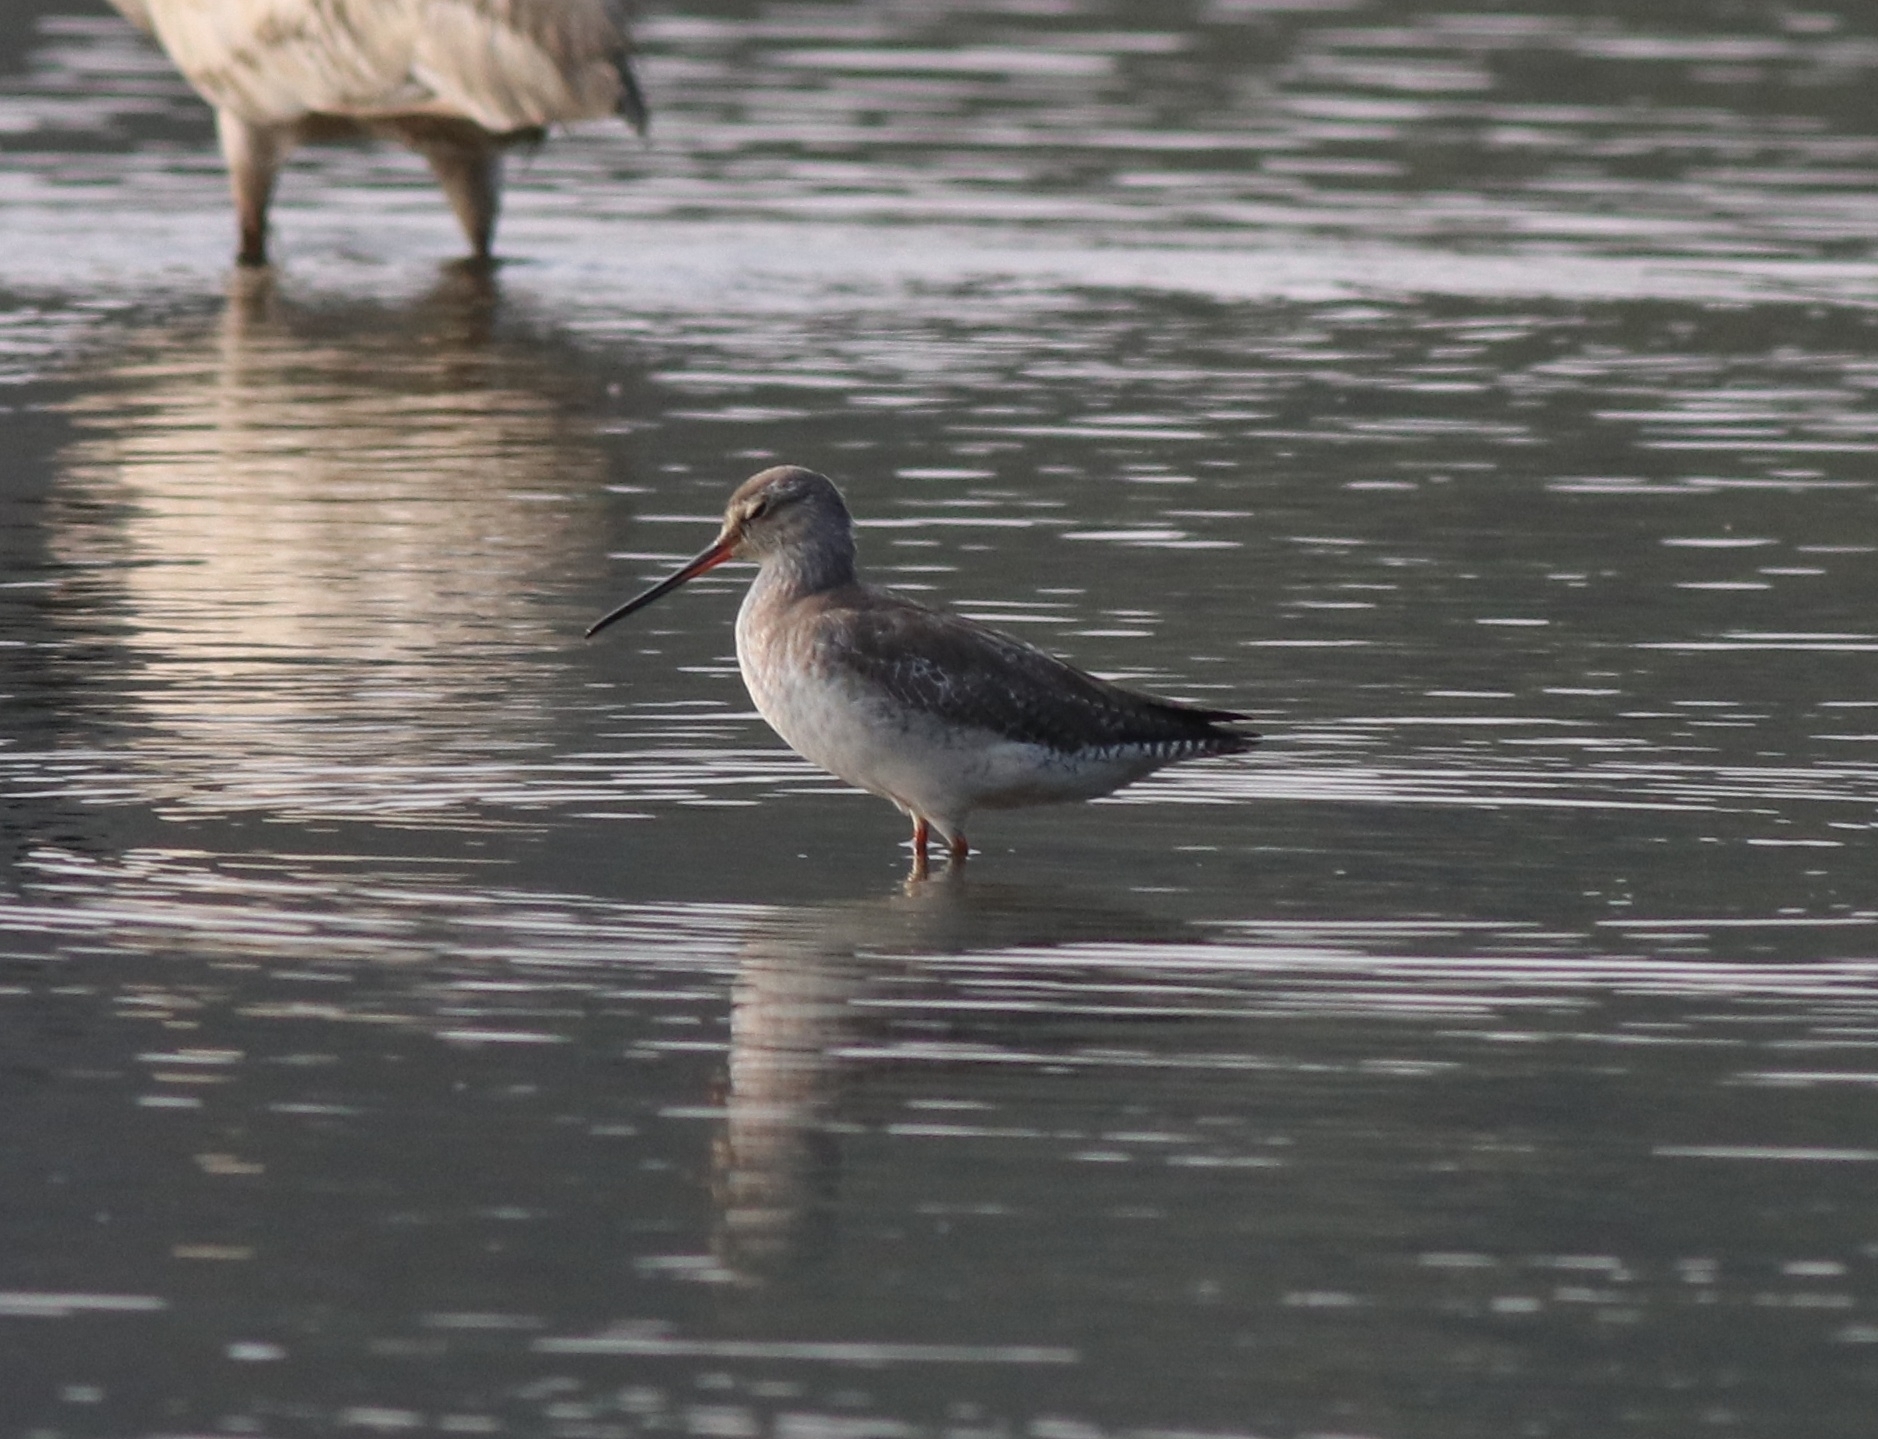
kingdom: Animalia
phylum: Chordata
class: Aves
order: Charadriiformes
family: Scolopacidae
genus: Tringa
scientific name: Tringa erythropus
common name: Spotted redshank
